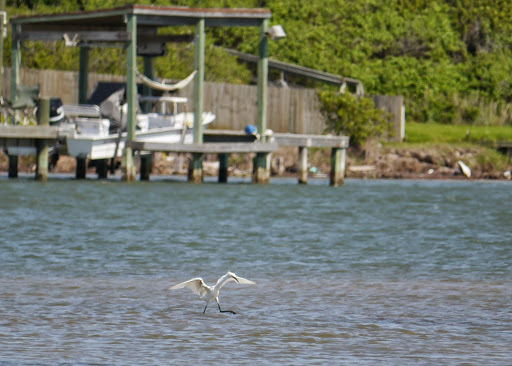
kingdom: Animalia
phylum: Chordata
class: Aves
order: Pelecaniformes
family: Ardeidae
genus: Egretta
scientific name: Egretta rufescens
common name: Reddish egret
